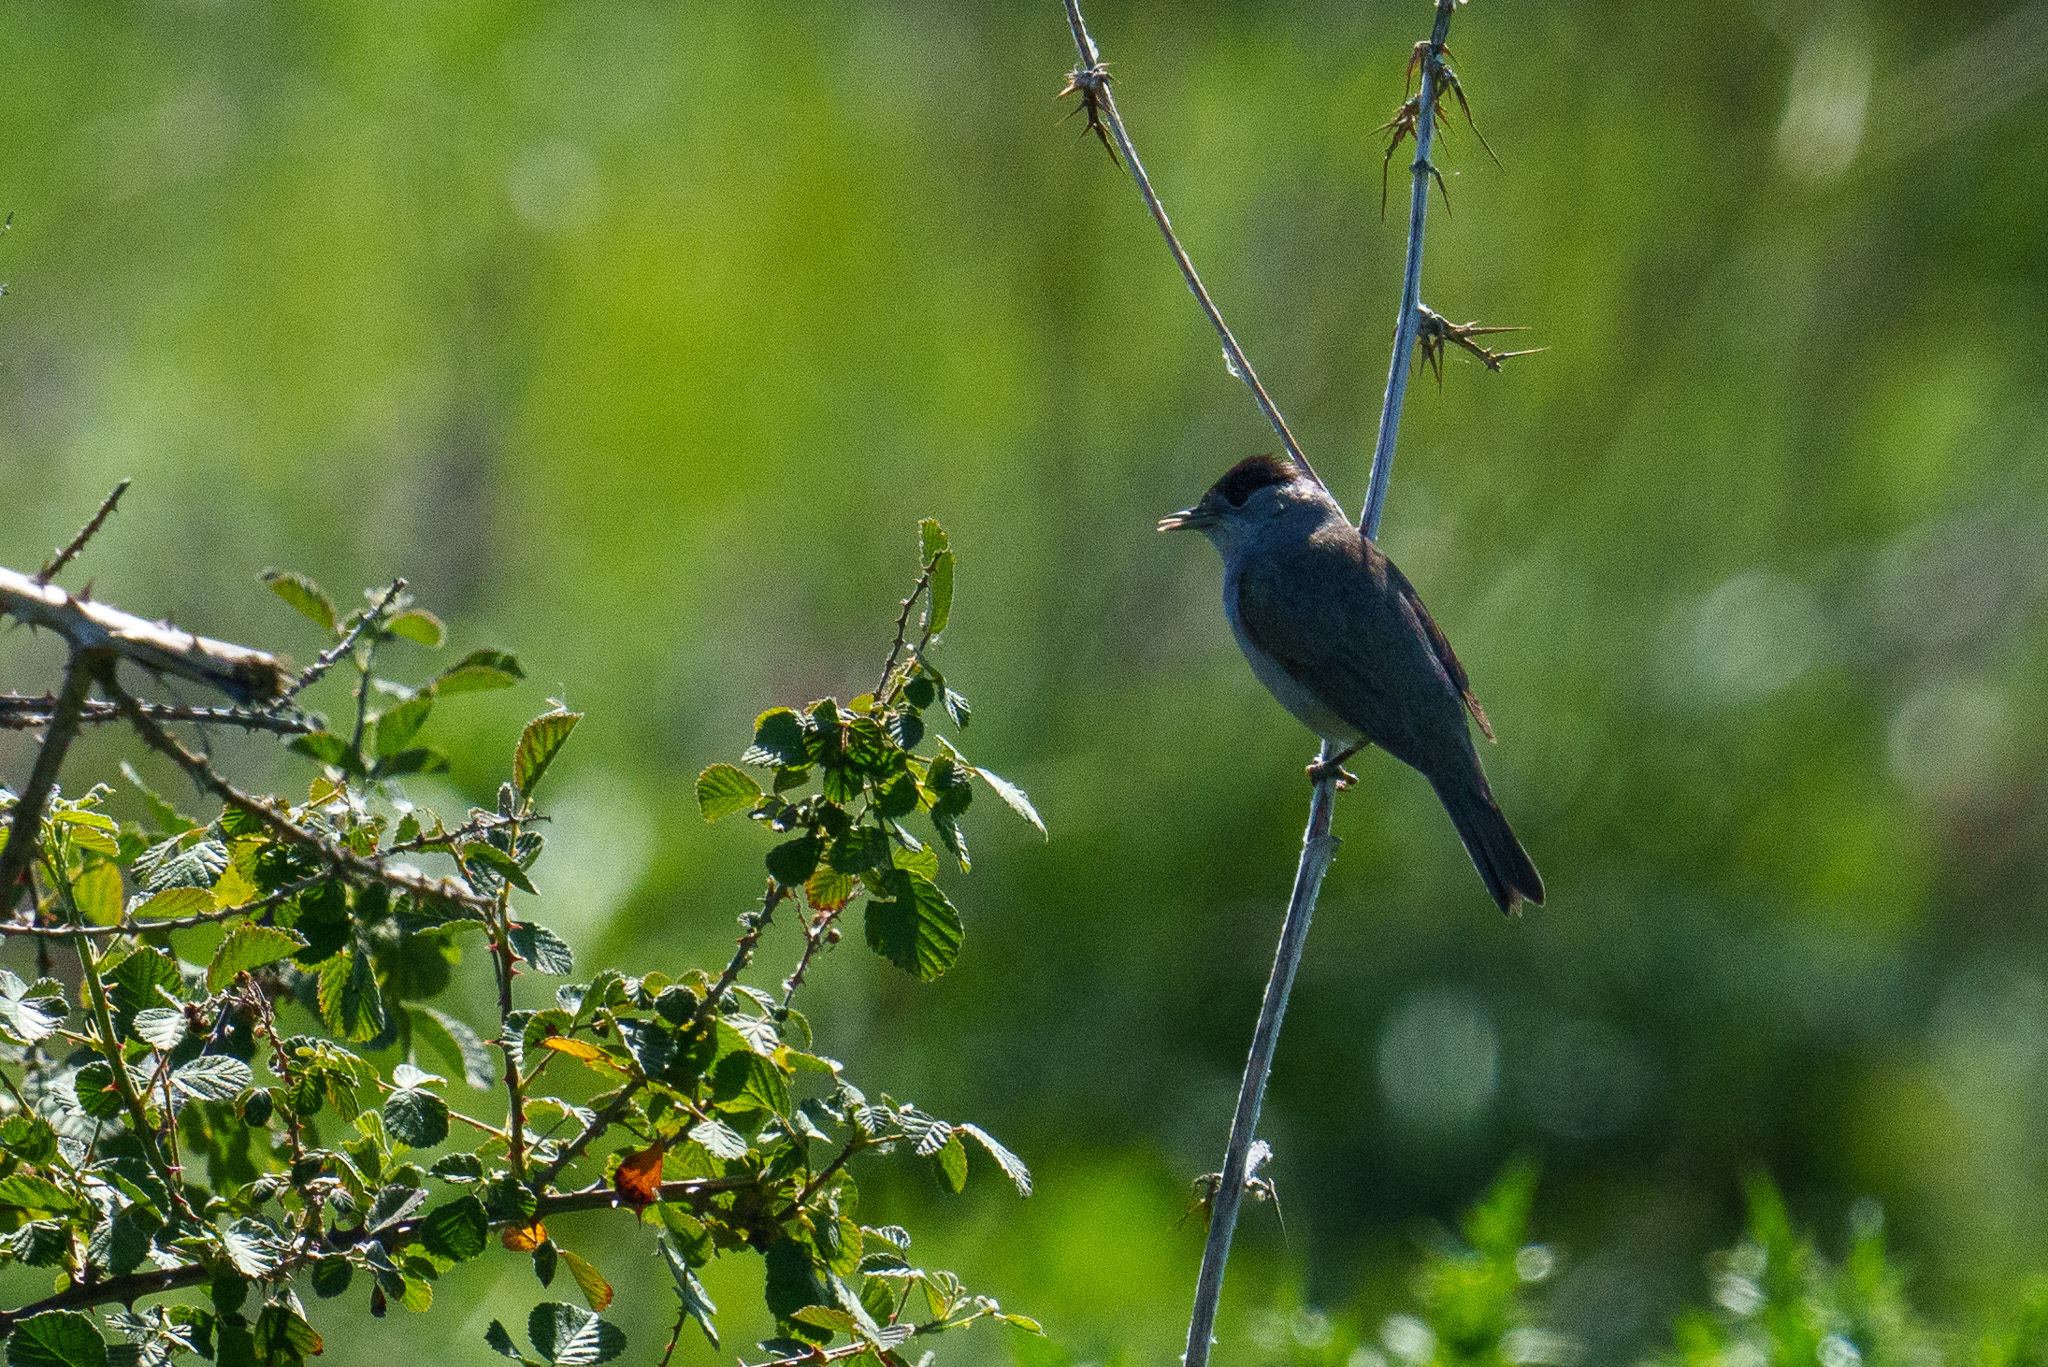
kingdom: Animalia
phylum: Chordata
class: Aves
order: Passeriformes
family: Sylviidae
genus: Sylvia
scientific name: Sylvia atricapilla
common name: Eurasian blackcap
